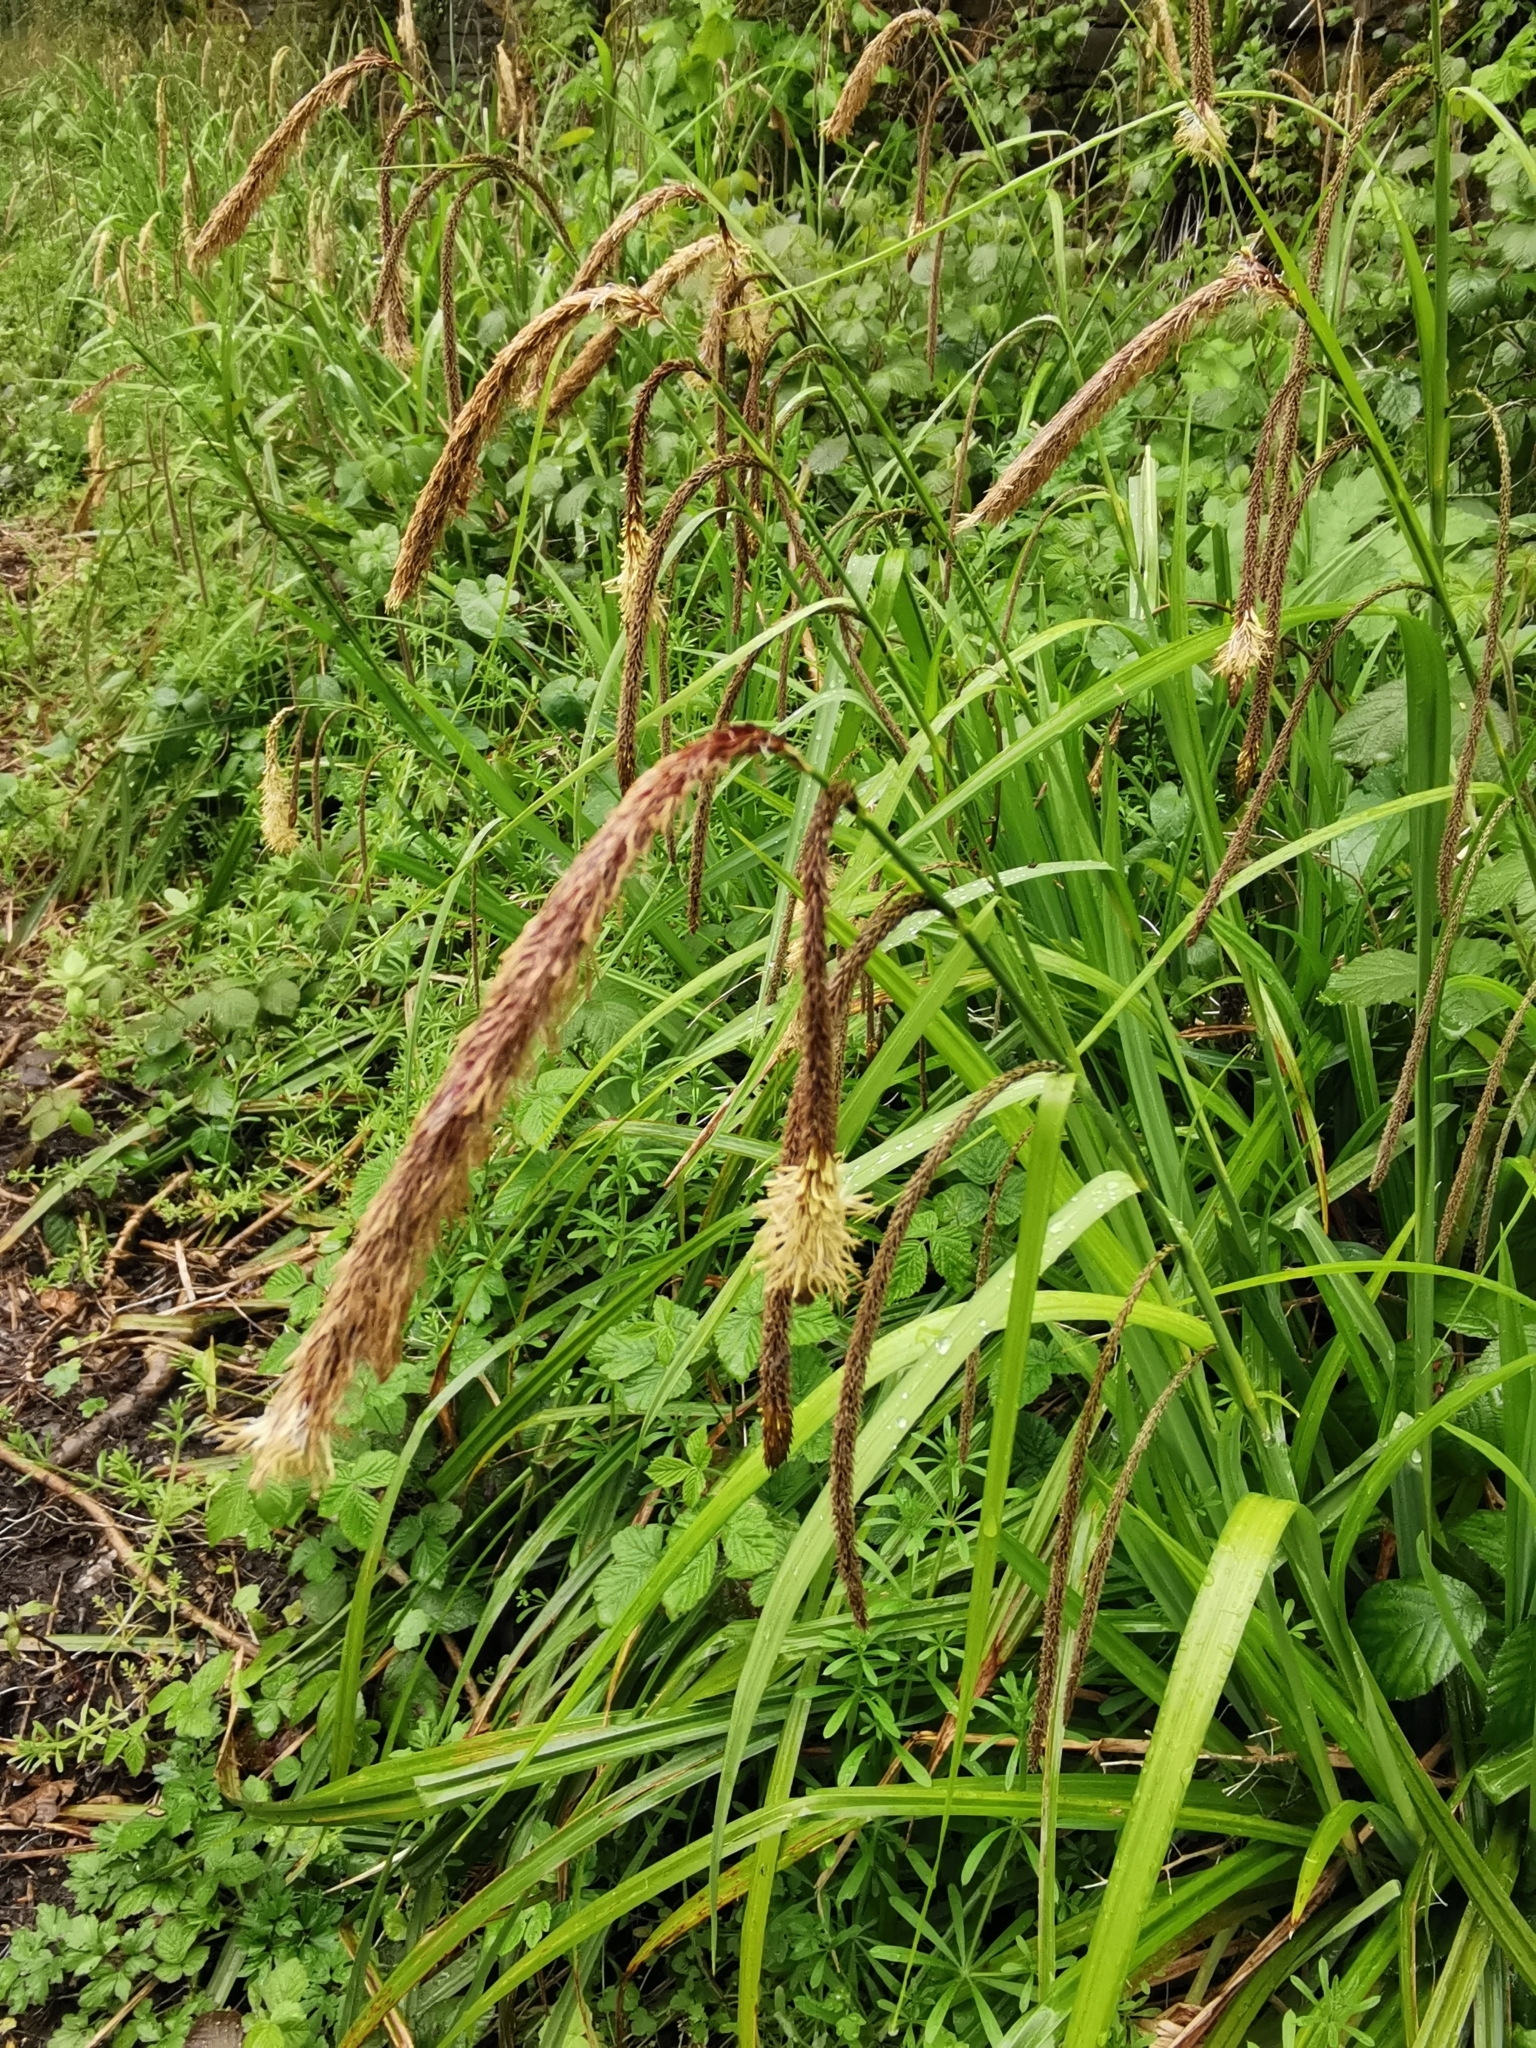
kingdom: Plantae
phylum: Tracheophyta
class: Liliopsida
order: Poales
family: Cyperaceae
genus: Carex
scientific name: Carex pendula
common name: Pendulous sedge
